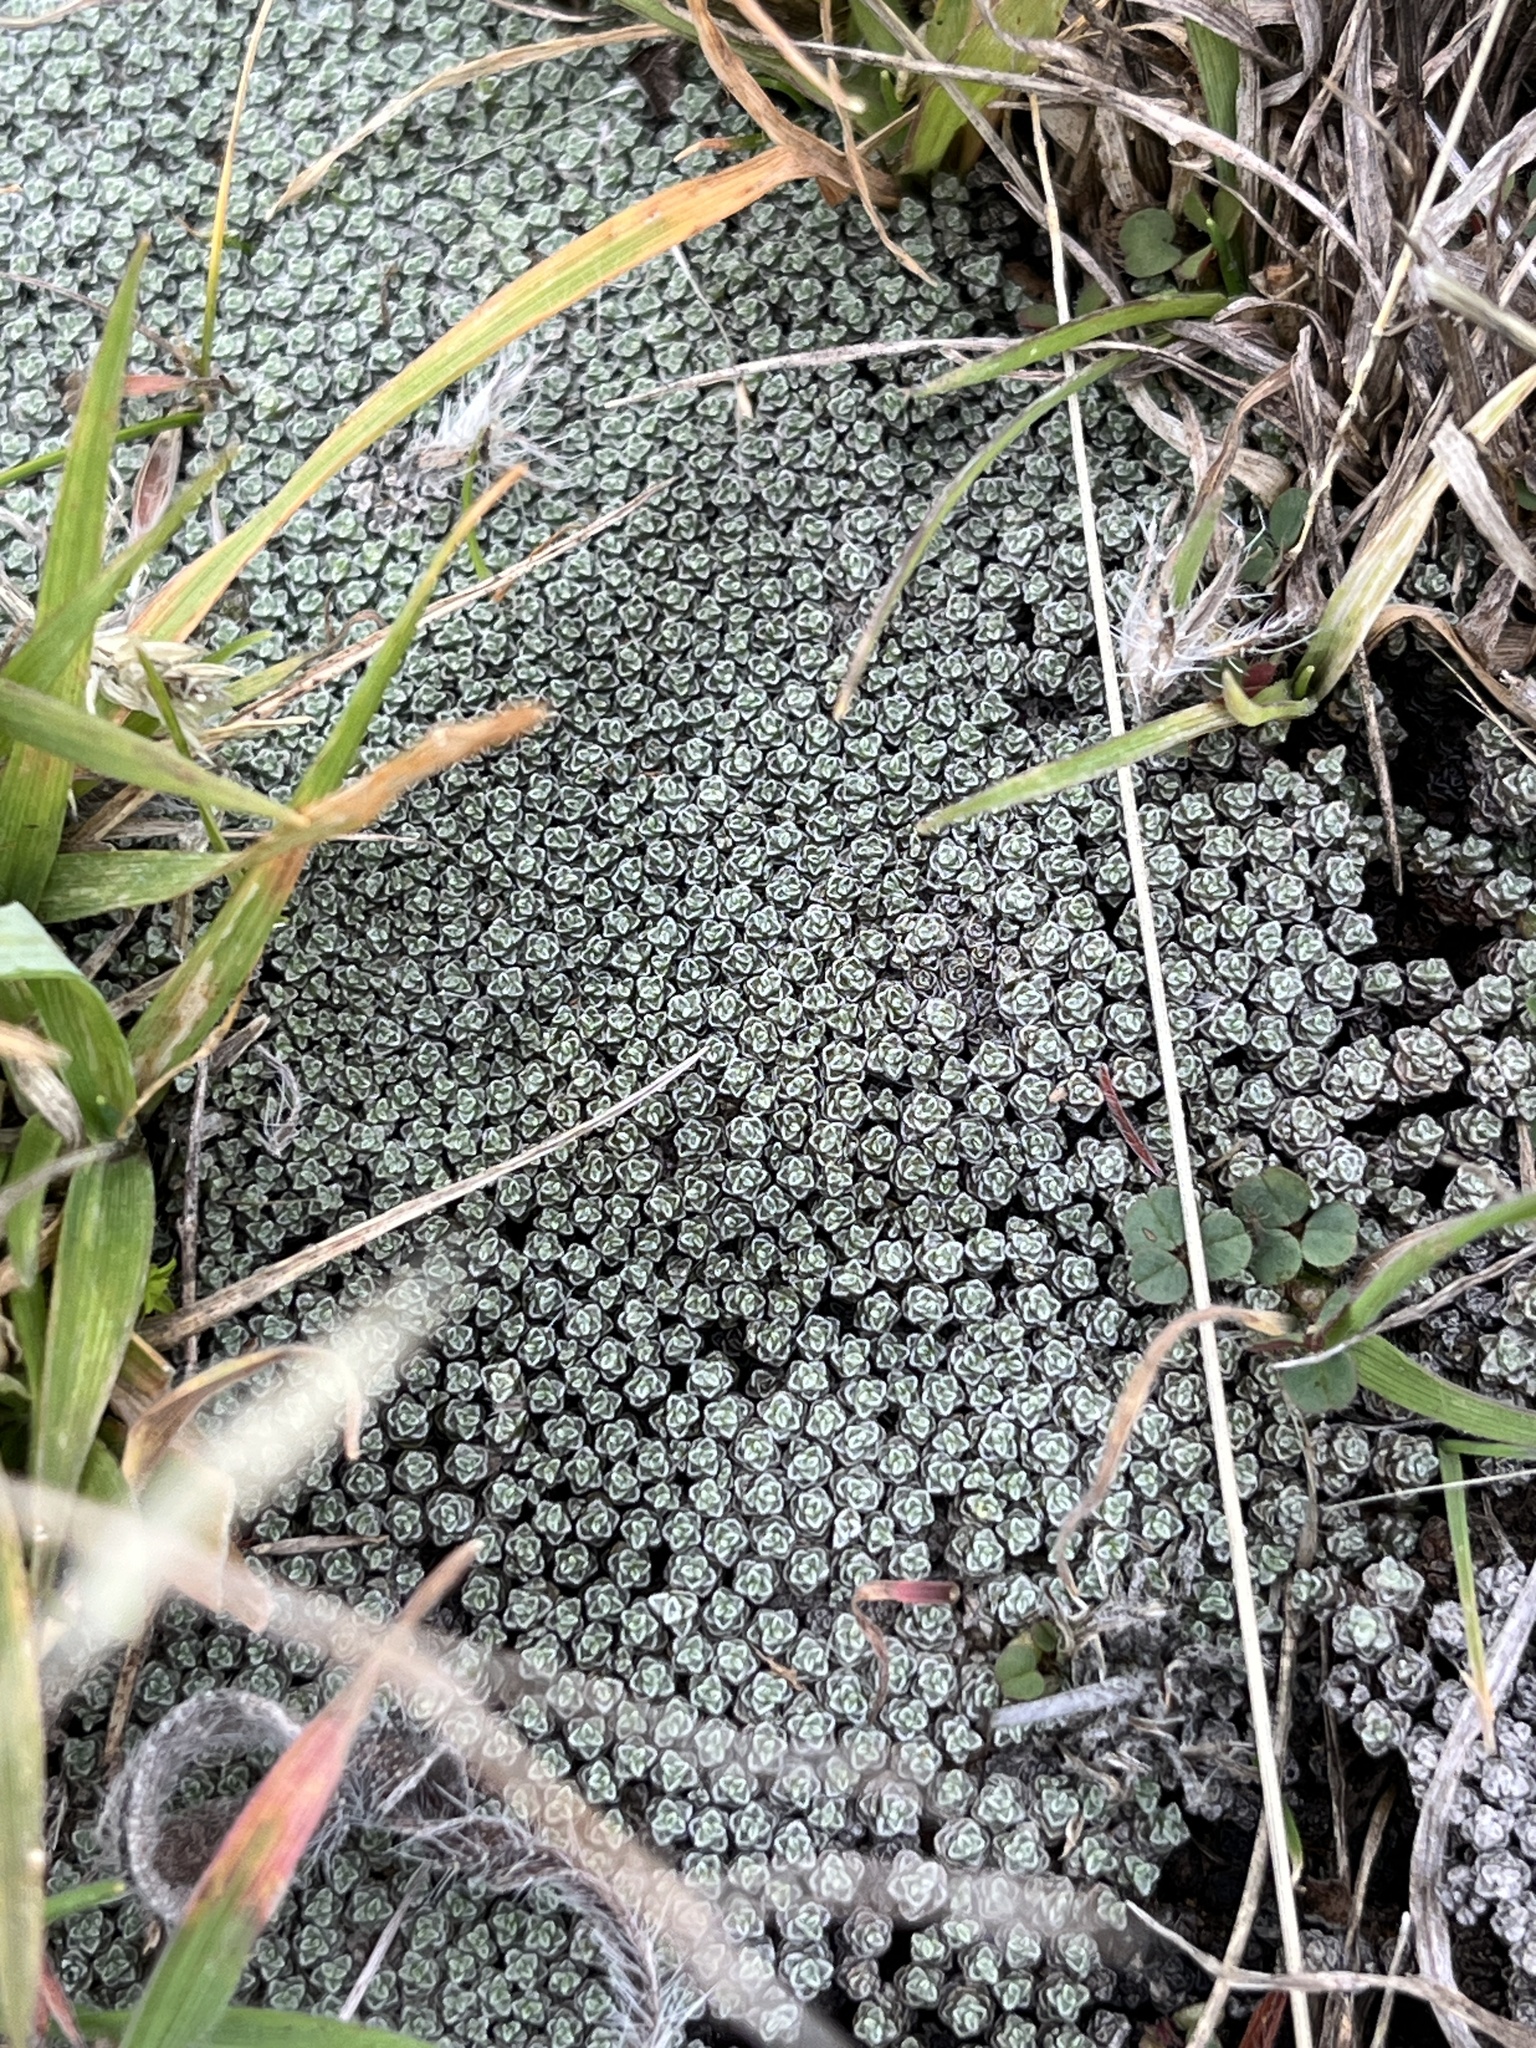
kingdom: Plantae
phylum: Tracheophyta
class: Magnoliopsida
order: Asterales
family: Asteraceae
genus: Raoulia
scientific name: Raoulia australis
